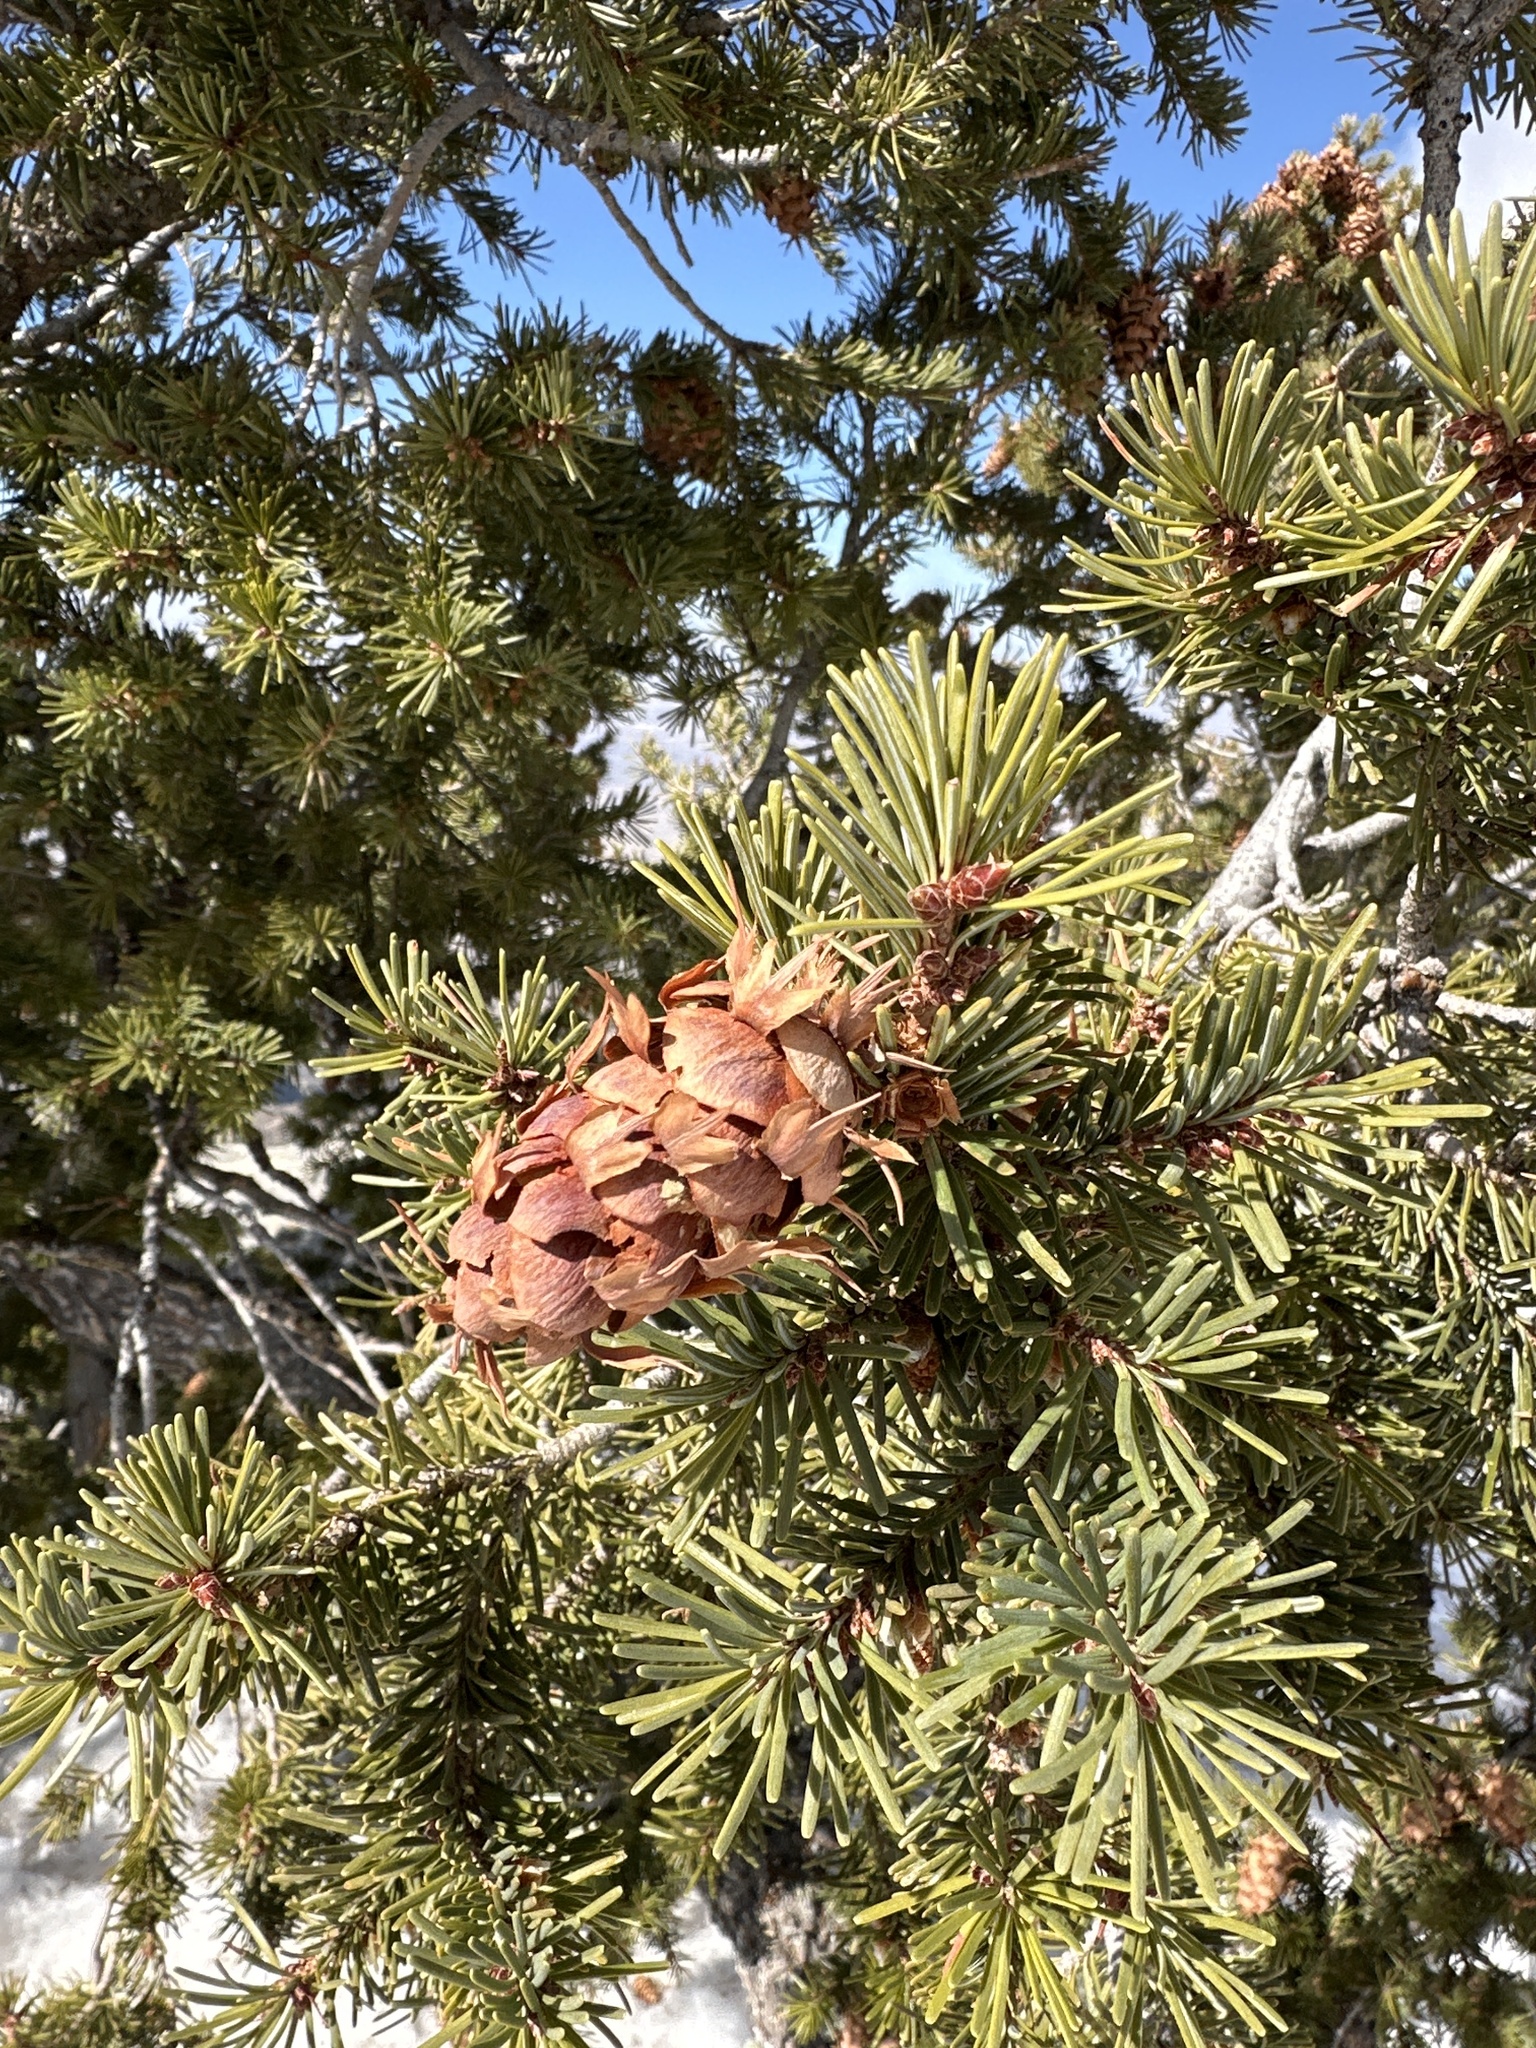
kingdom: Plantae
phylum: Tracheophyta
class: Pinopsida
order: Pinales
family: Pinaceae
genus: Pseudotsuga
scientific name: Pseudotsuga menziesii
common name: Douglas fir
